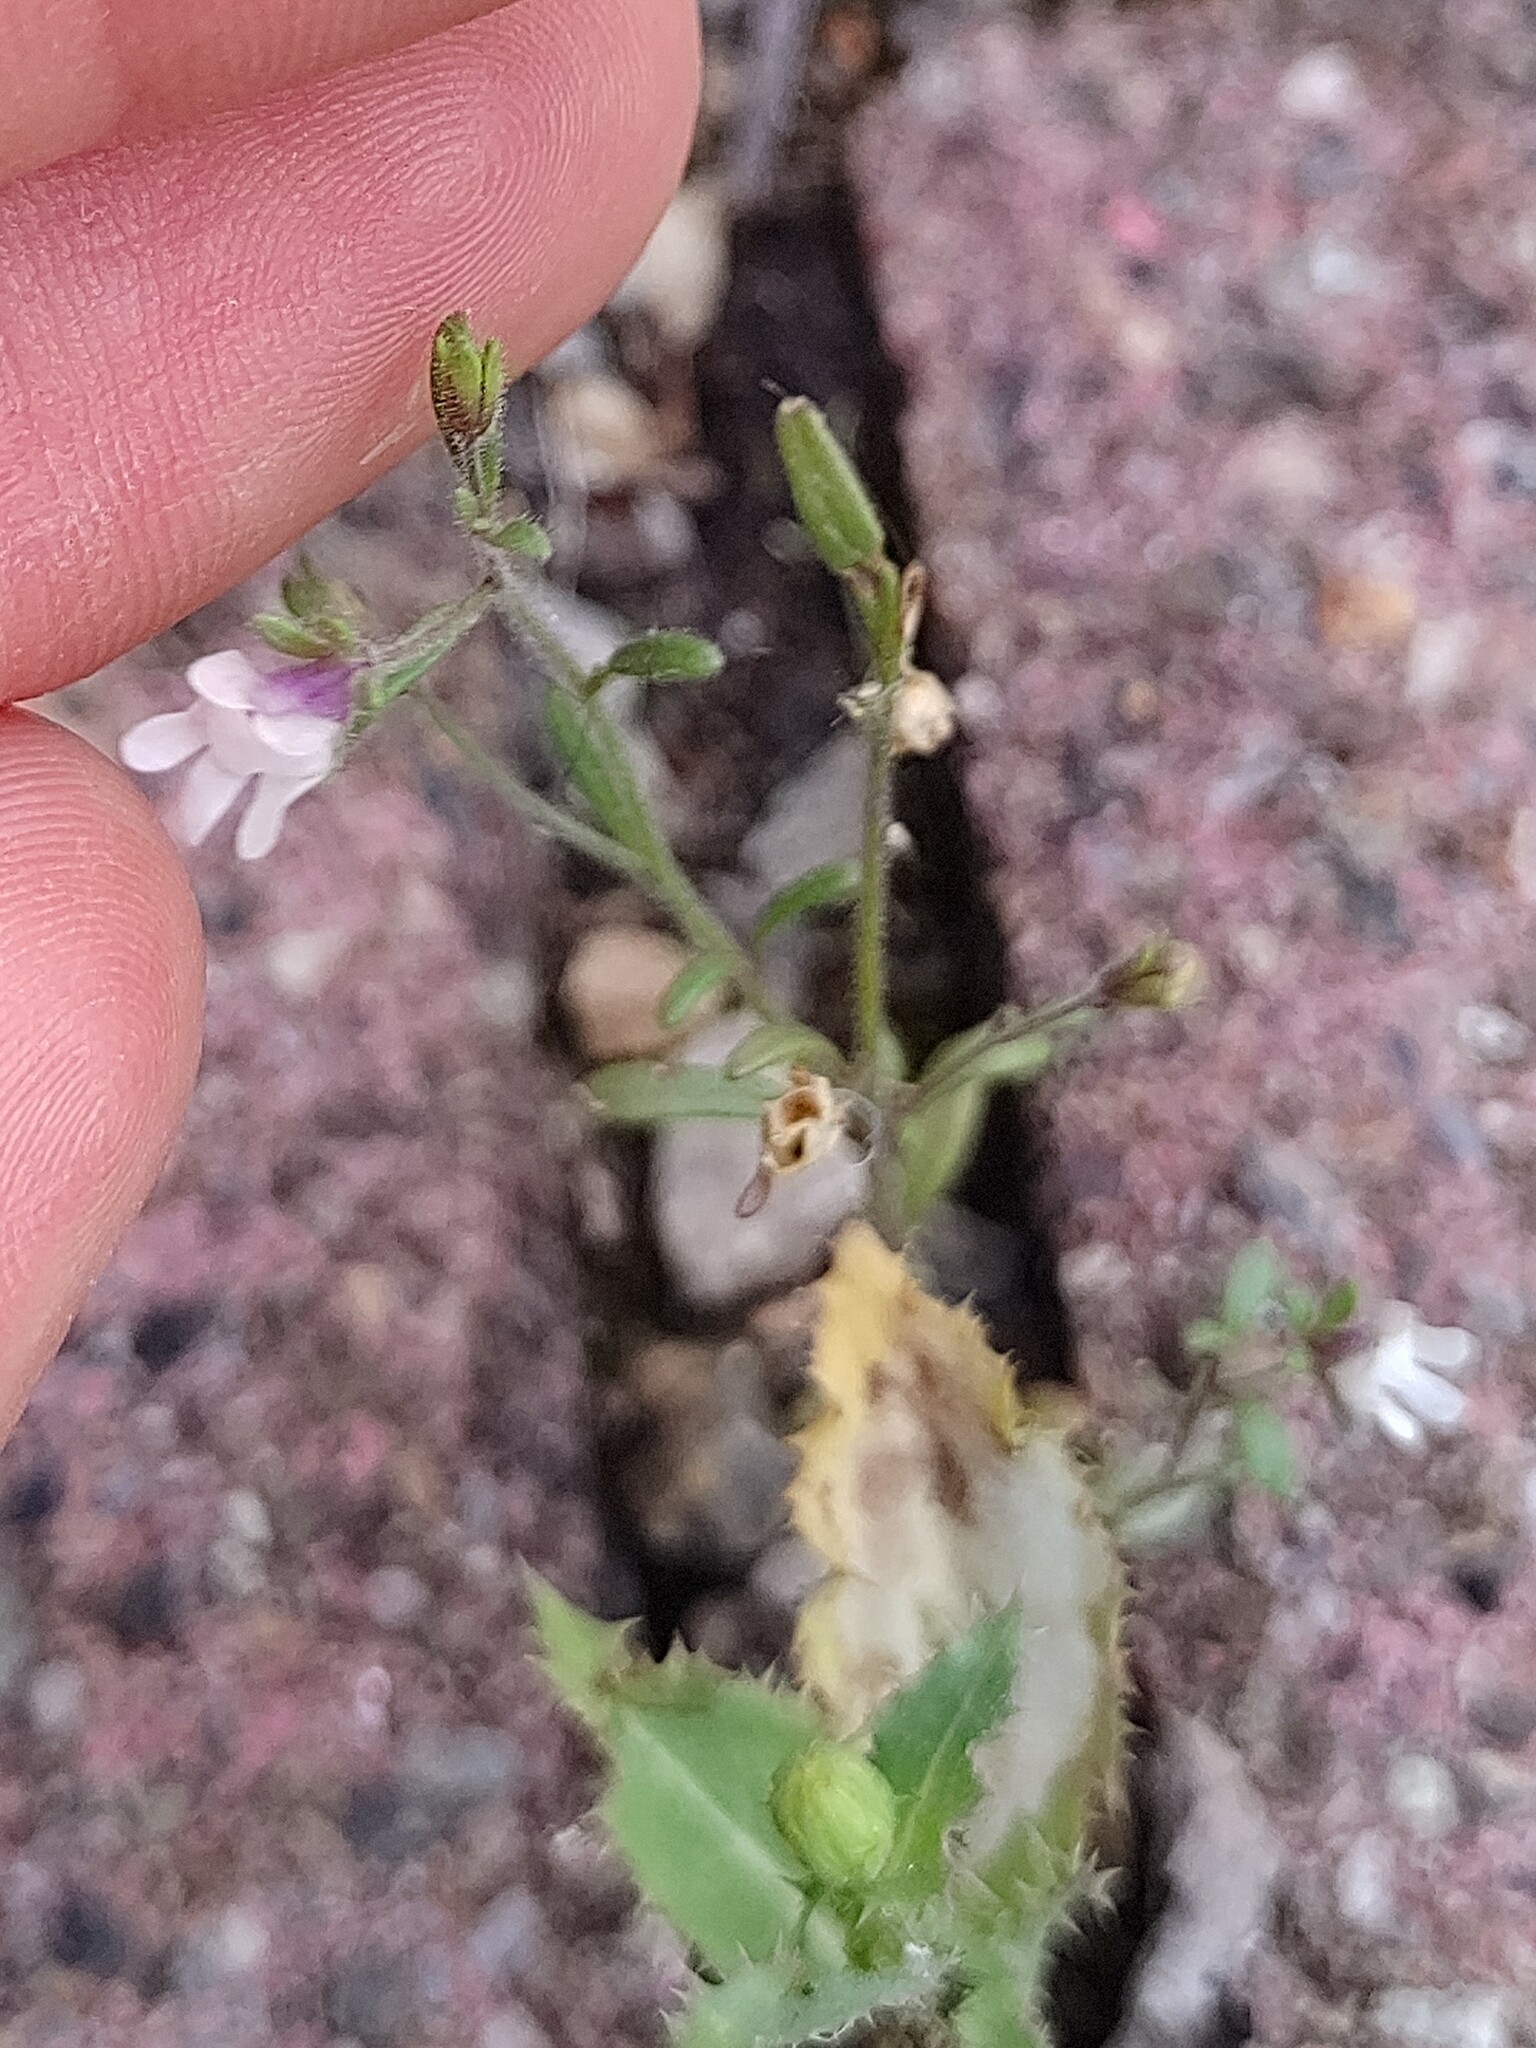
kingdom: Plantae
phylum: Tracheophyta
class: Magnoliopsida
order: Lamiales
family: Plantaginaceae
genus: Chaenorhinum
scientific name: Chaenorhinum minus
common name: Dwarf snapdragon
